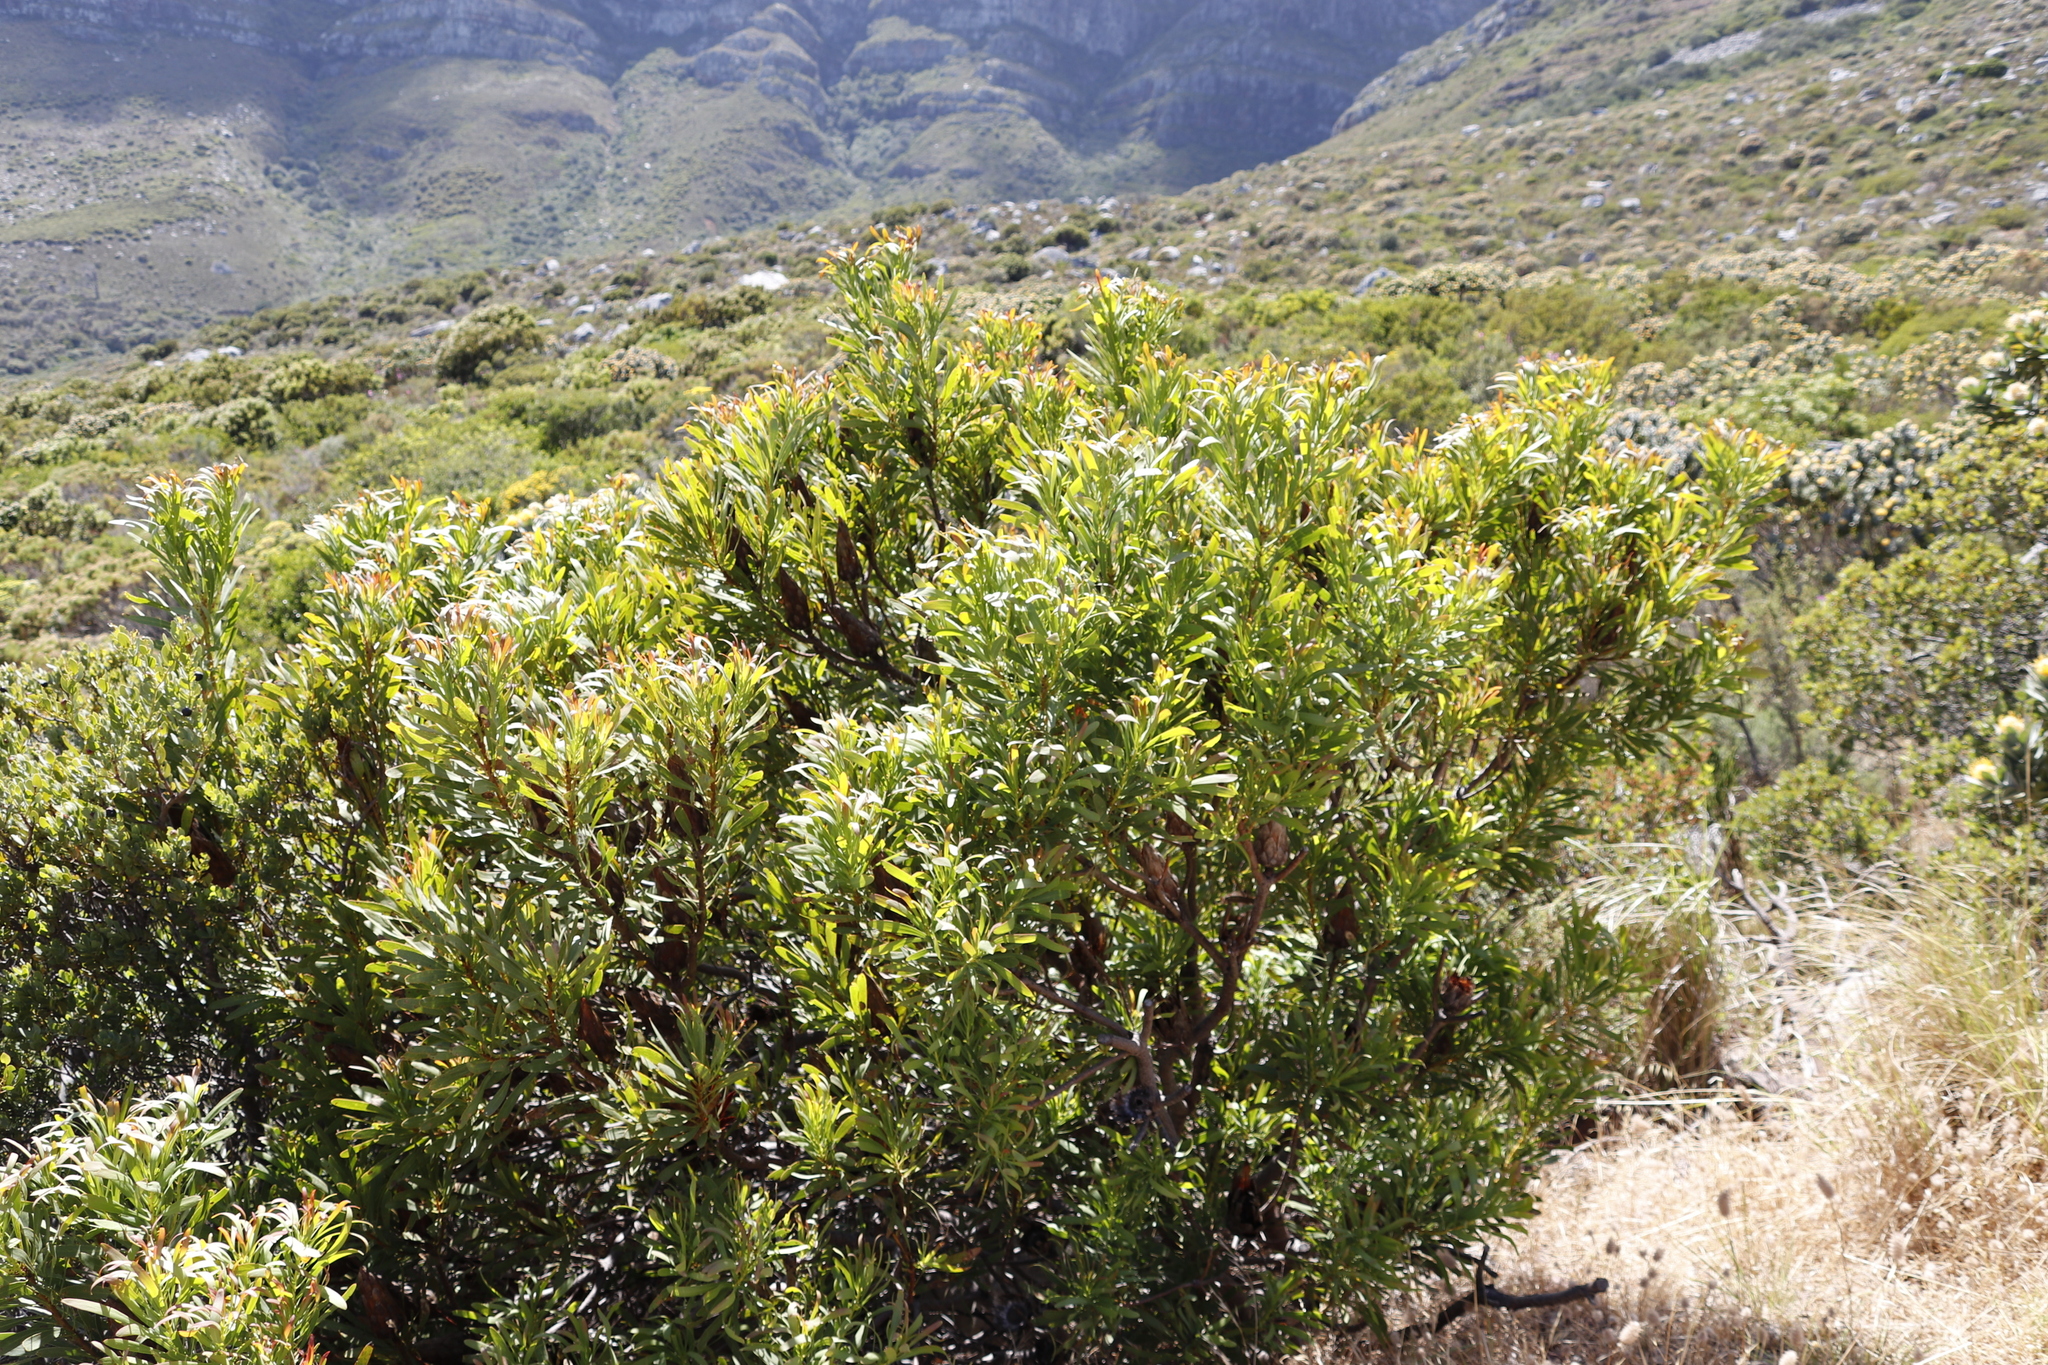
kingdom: Plantae
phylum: Tracheophyta
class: Magnoliopsida
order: Proteales
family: Proteaceae
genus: Protea
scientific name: Protea repens
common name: Sugarbush
